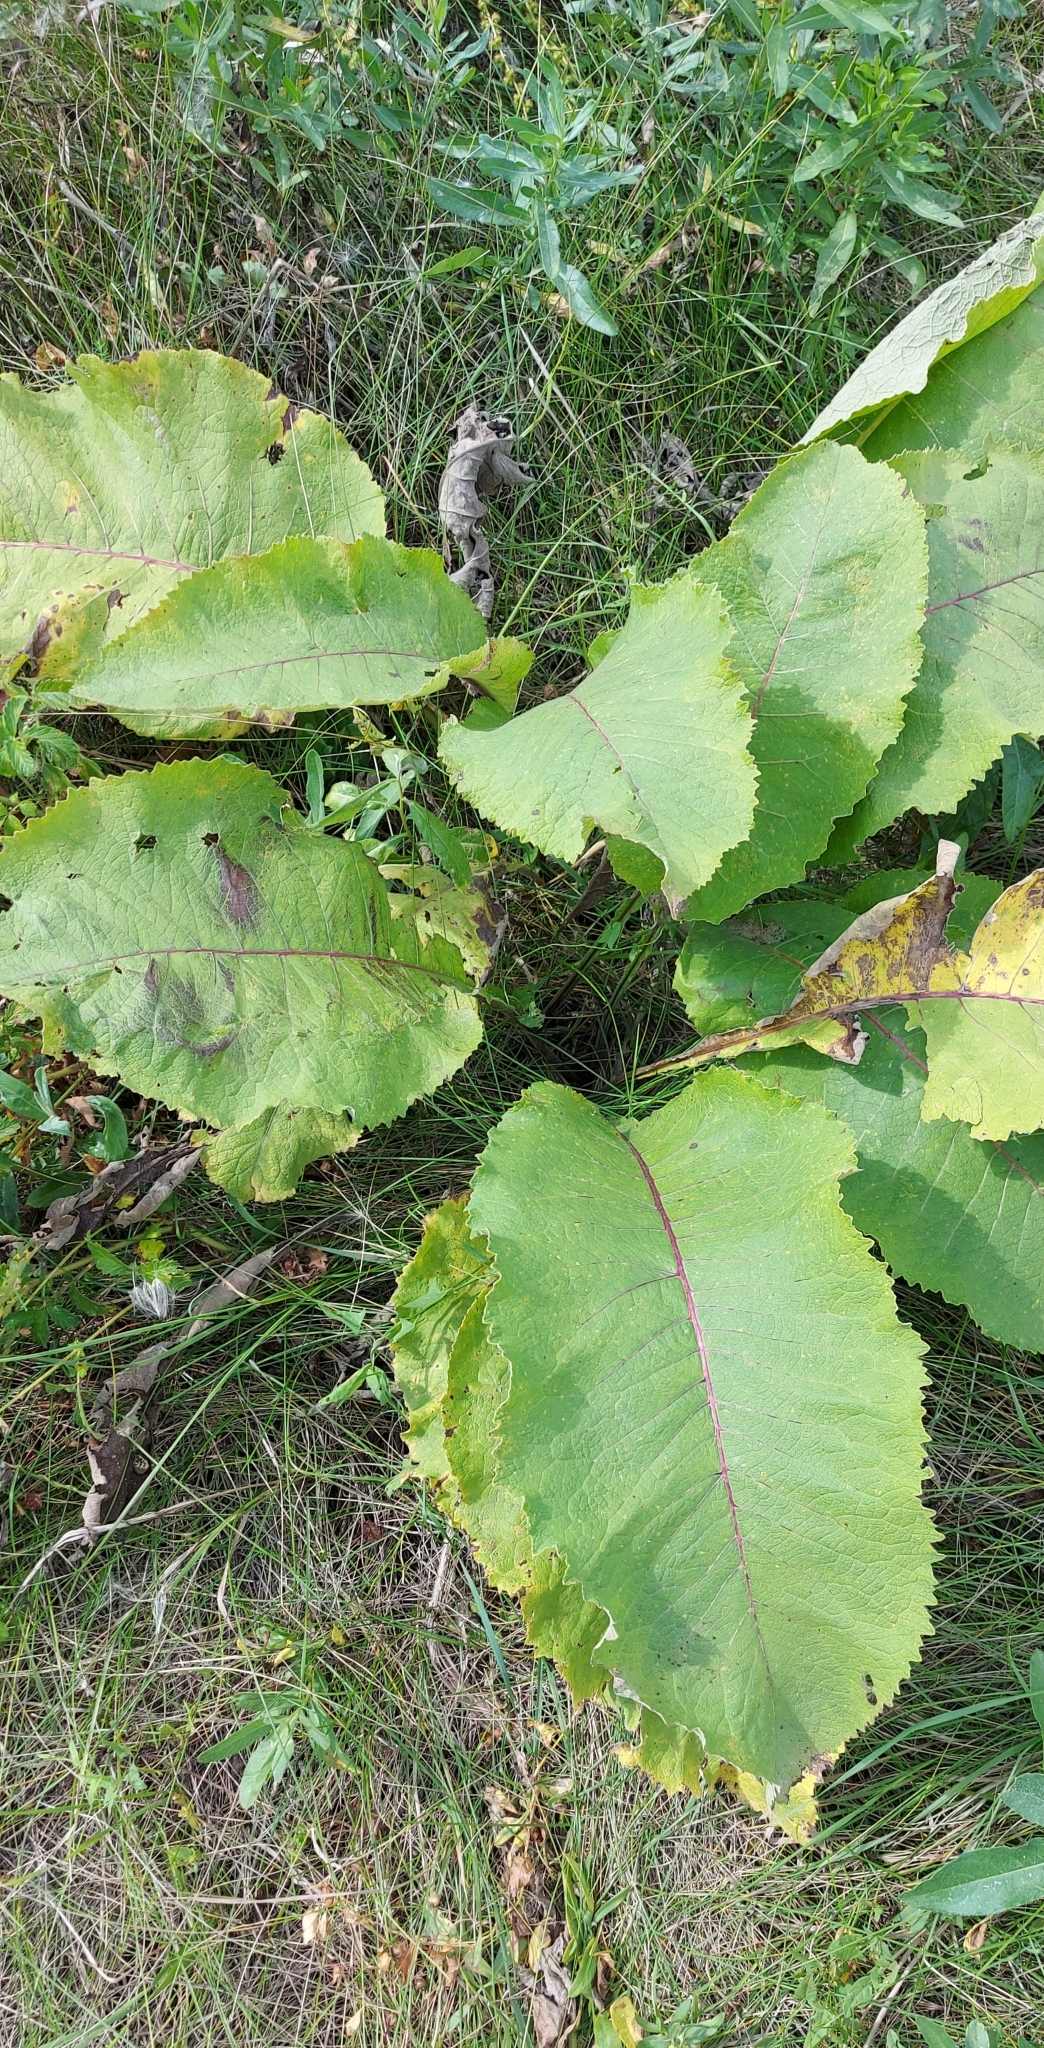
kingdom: Plantae
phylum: Tracheophyta
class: Magnoliopsida
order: Asterales
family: Asteraceae
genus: Inula
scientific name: Inula helenium
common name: Elecampane
